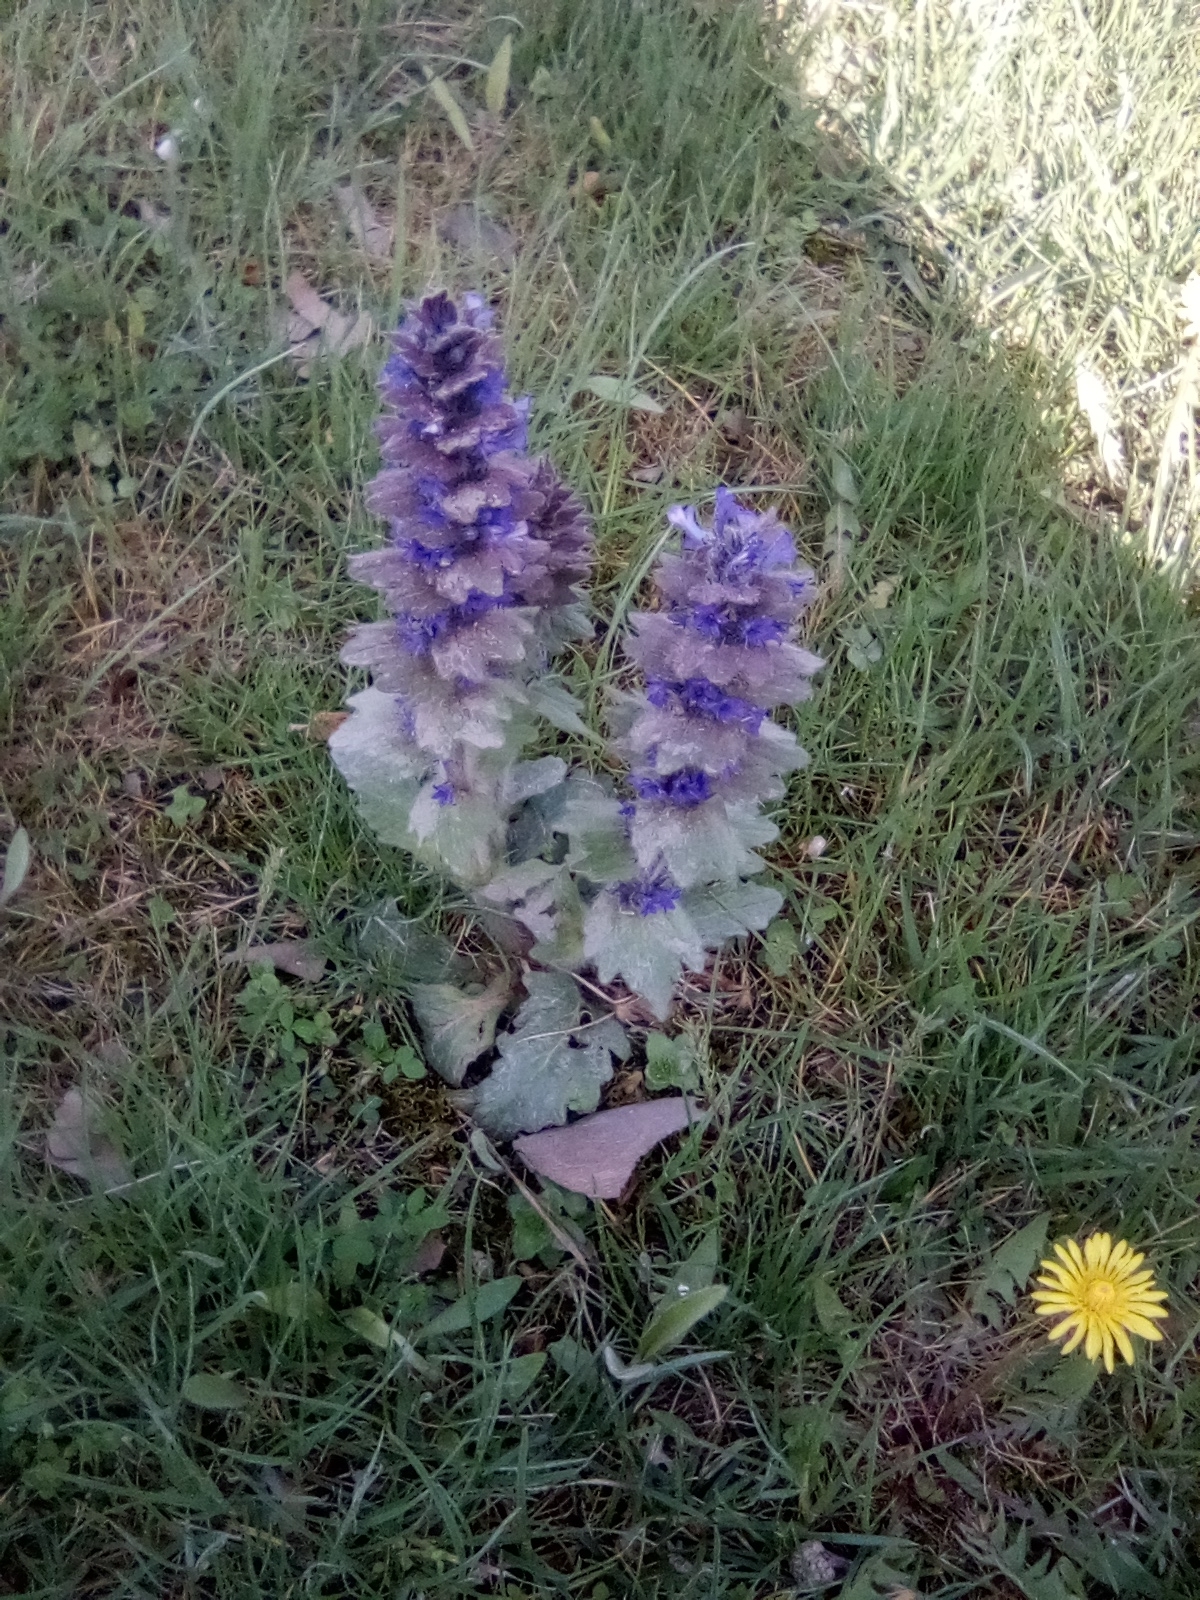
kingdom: Plantae
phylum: Tracheophyta
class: Magnoliopsida
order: Lamiales
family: Lamiaceae
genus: Ajuga
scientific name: Ajuga orientalis
